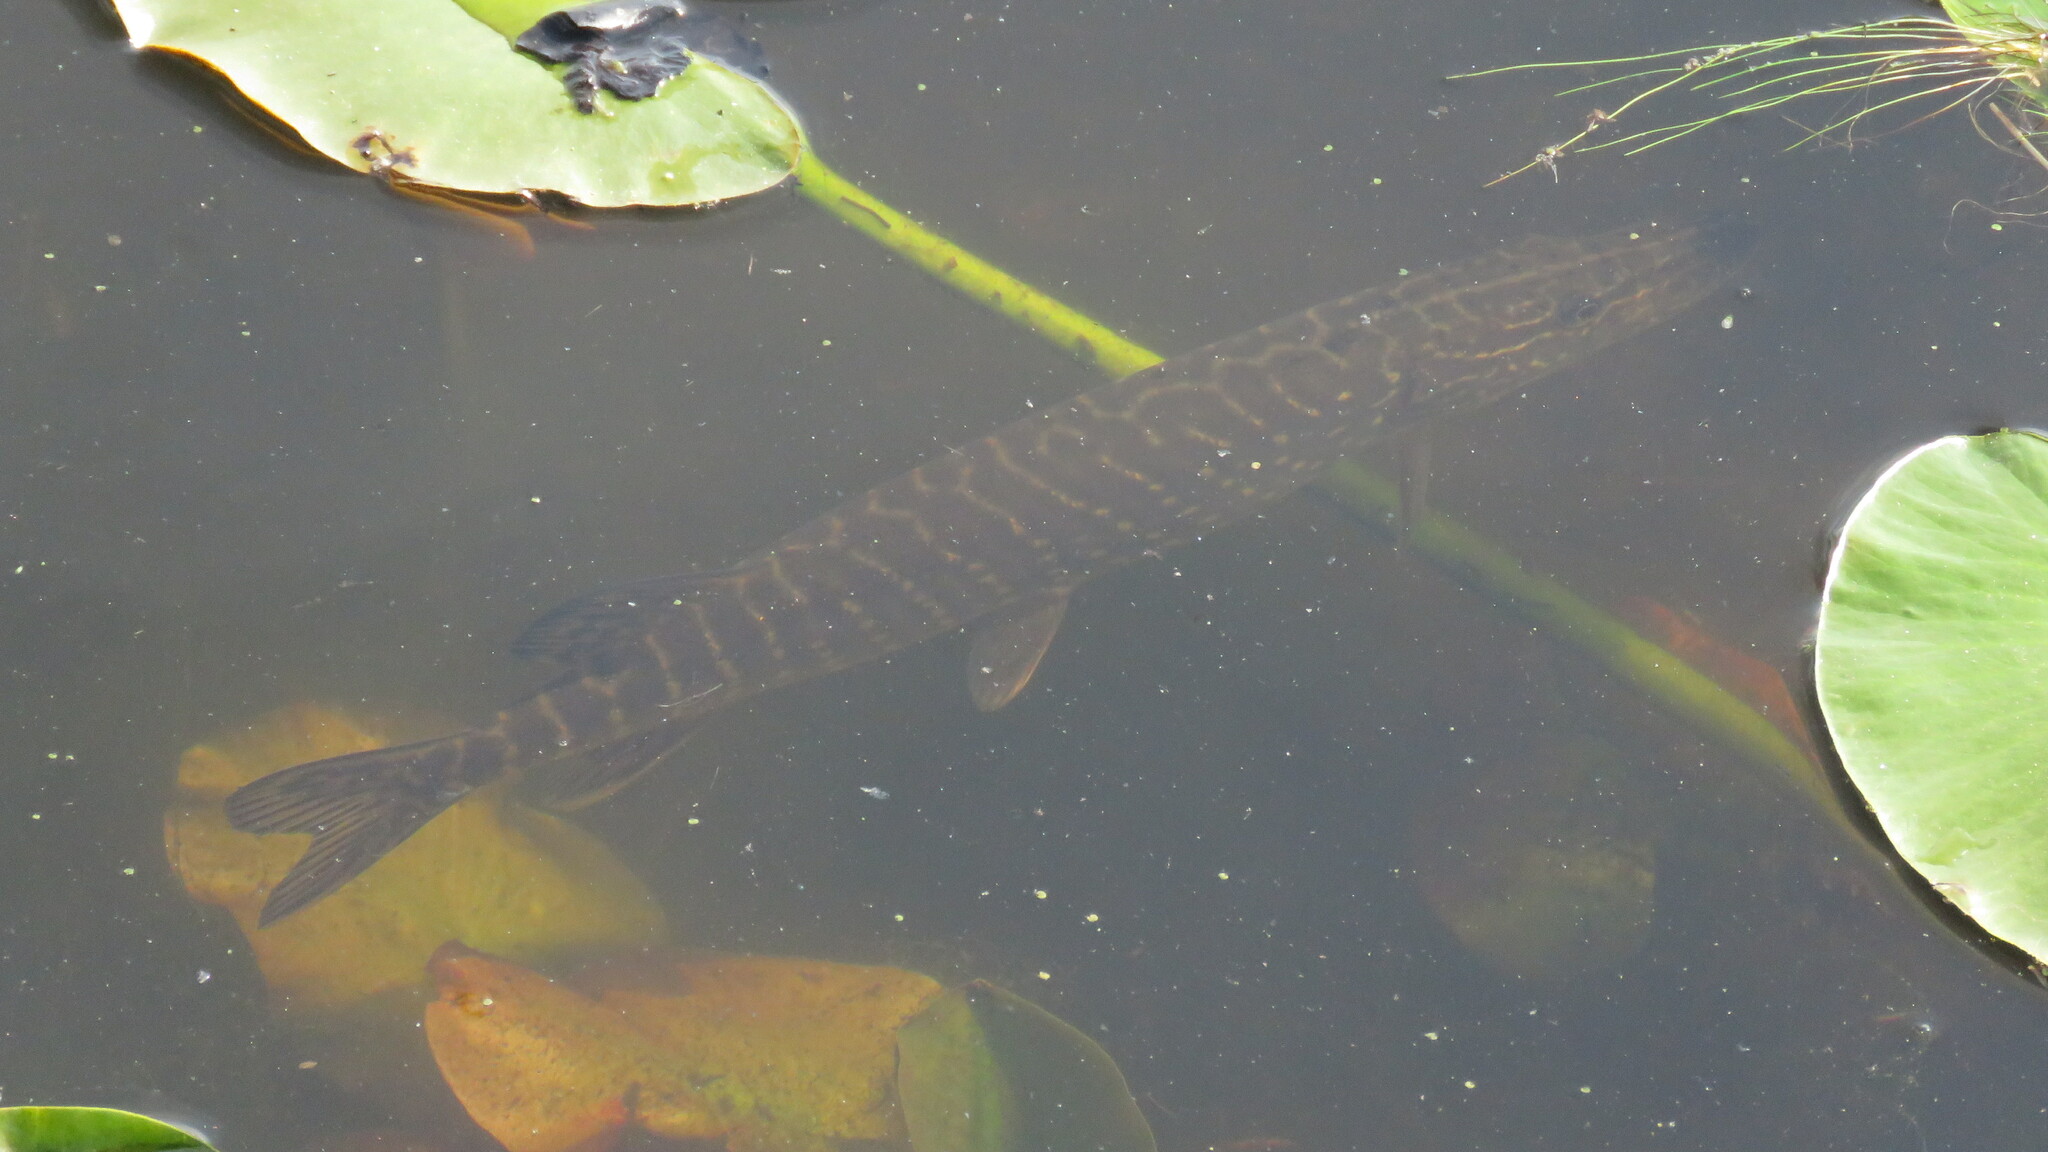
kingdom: Animalia
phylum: Chordata
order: Esociformes
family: Esocidae
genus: Esox
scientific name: Esox lucius
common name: Northern pike
